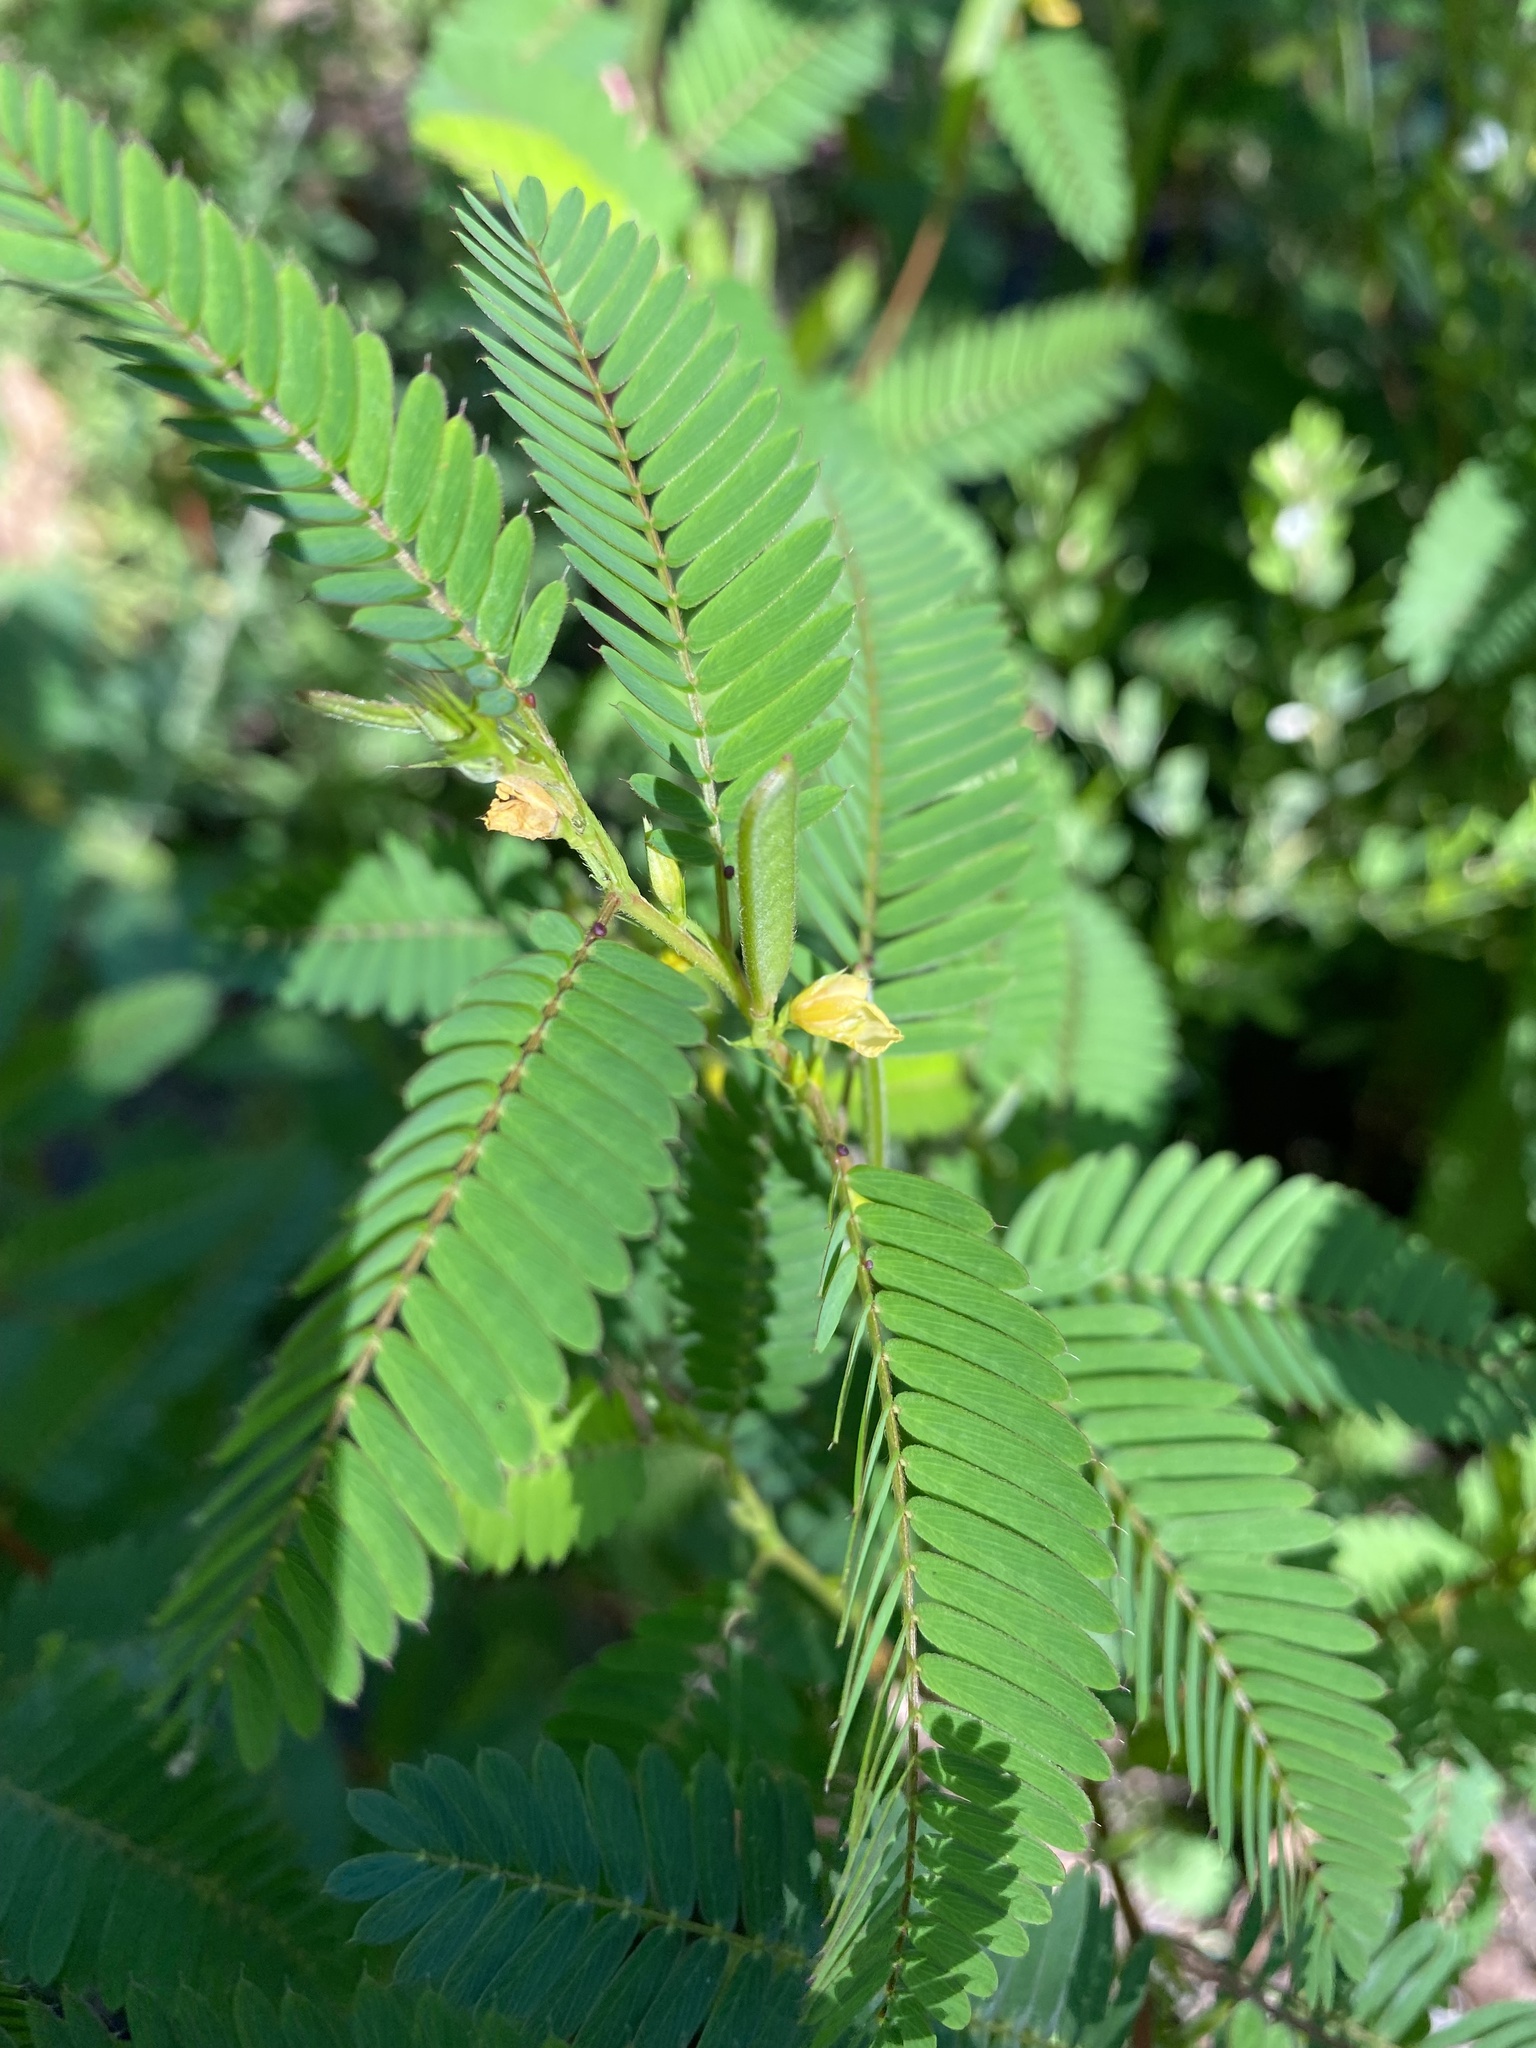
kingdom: Plantae
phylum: Tracheophyta
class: Magnoliopsida
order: Fabales
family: Fabaceae
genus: Chamaecrista
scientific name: Chamaecrista nictitans
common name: Sensitive cassia
